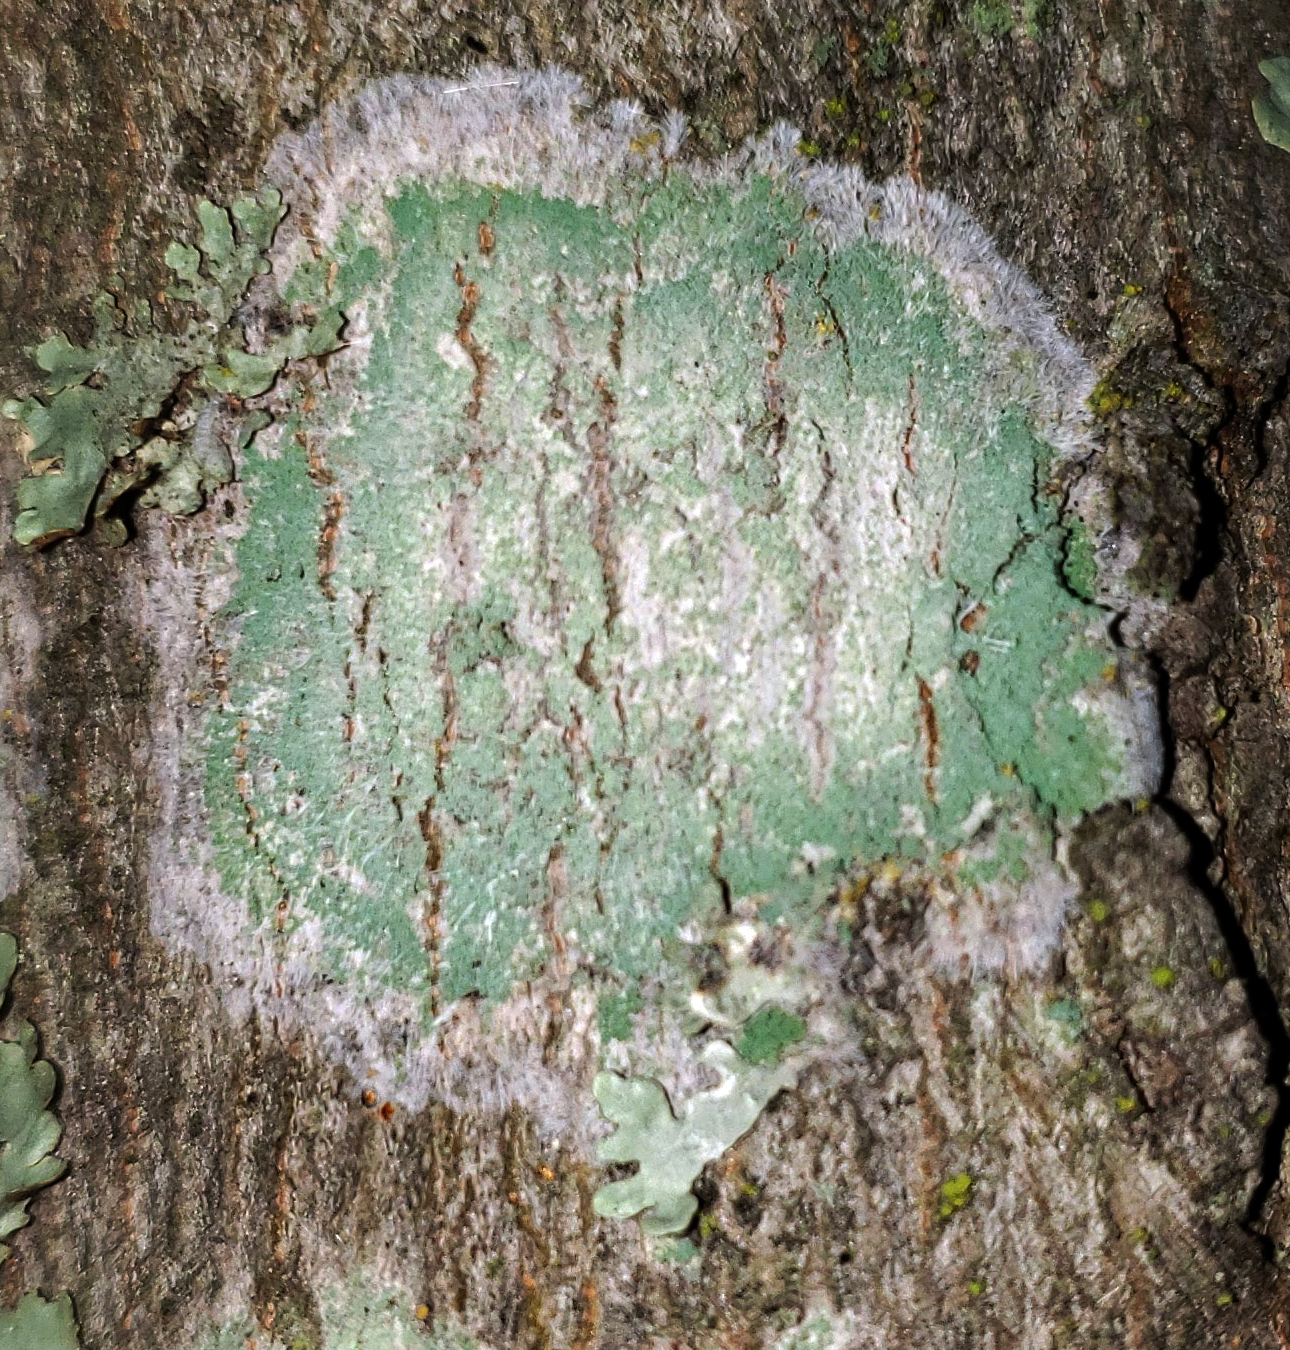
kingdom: Fungi
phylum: Ascomycota
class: Lecanoromycetes
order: Pertusariales
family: Pertusariaceae
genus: Verseghya
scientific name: Verseghya thysanophora
